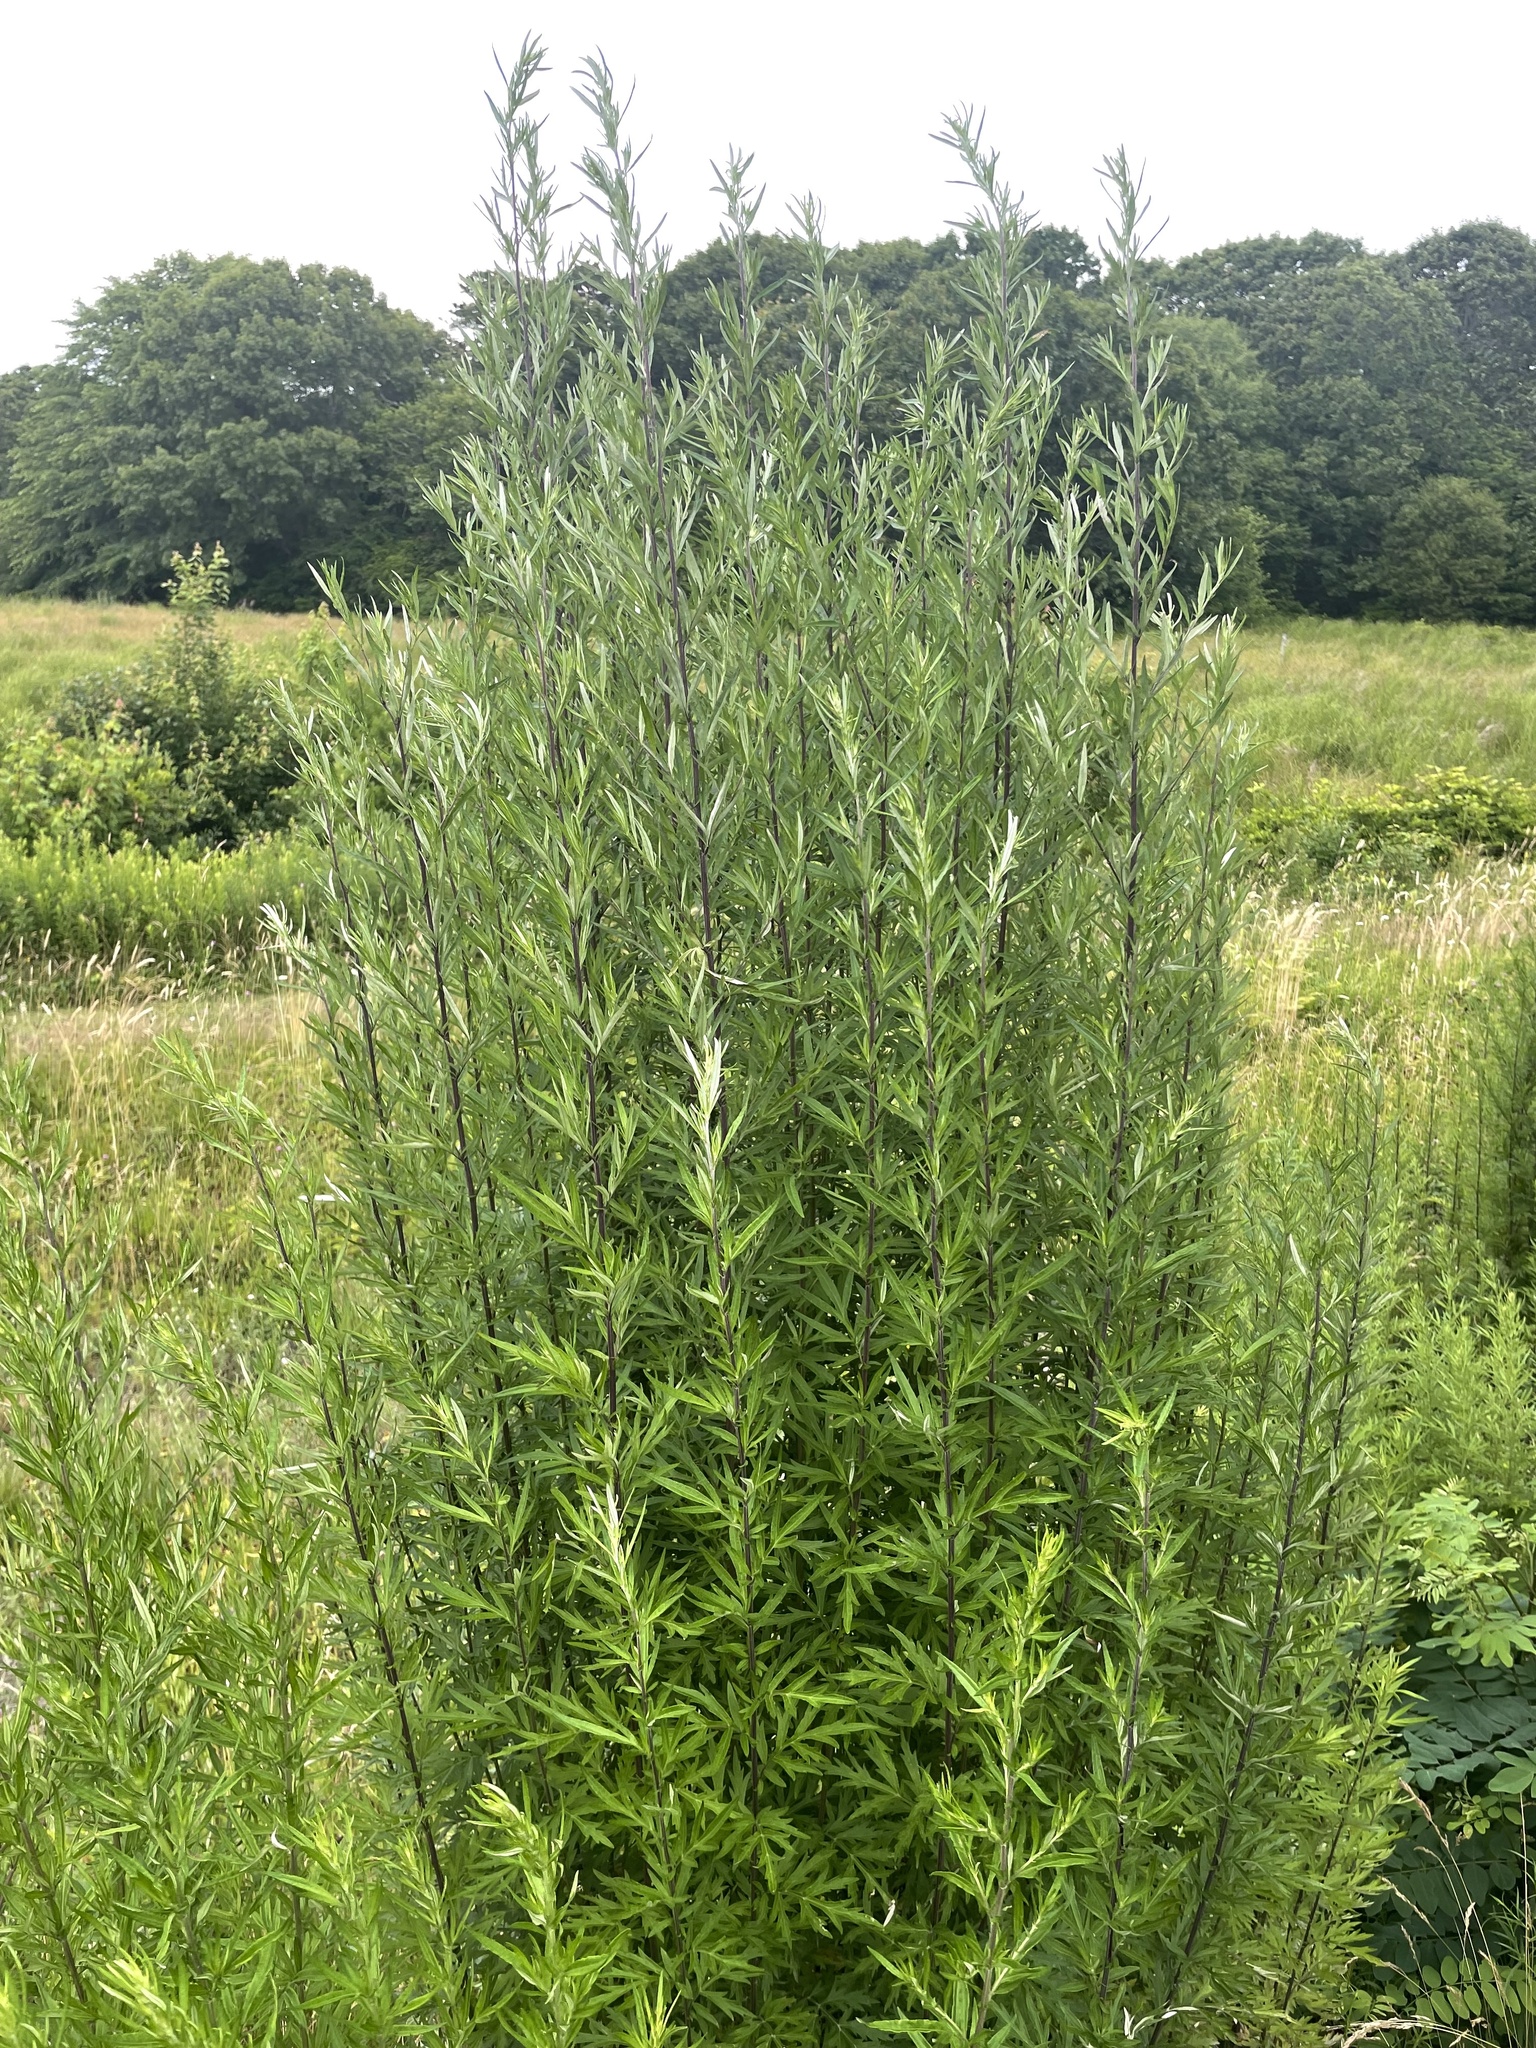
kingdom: Plantae
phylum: Tracheophyta
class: Magnoliopsida
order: Asterales
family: Asteraceae
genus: Artemisia
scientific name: Artemisia vulgaris
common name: Mugwort
